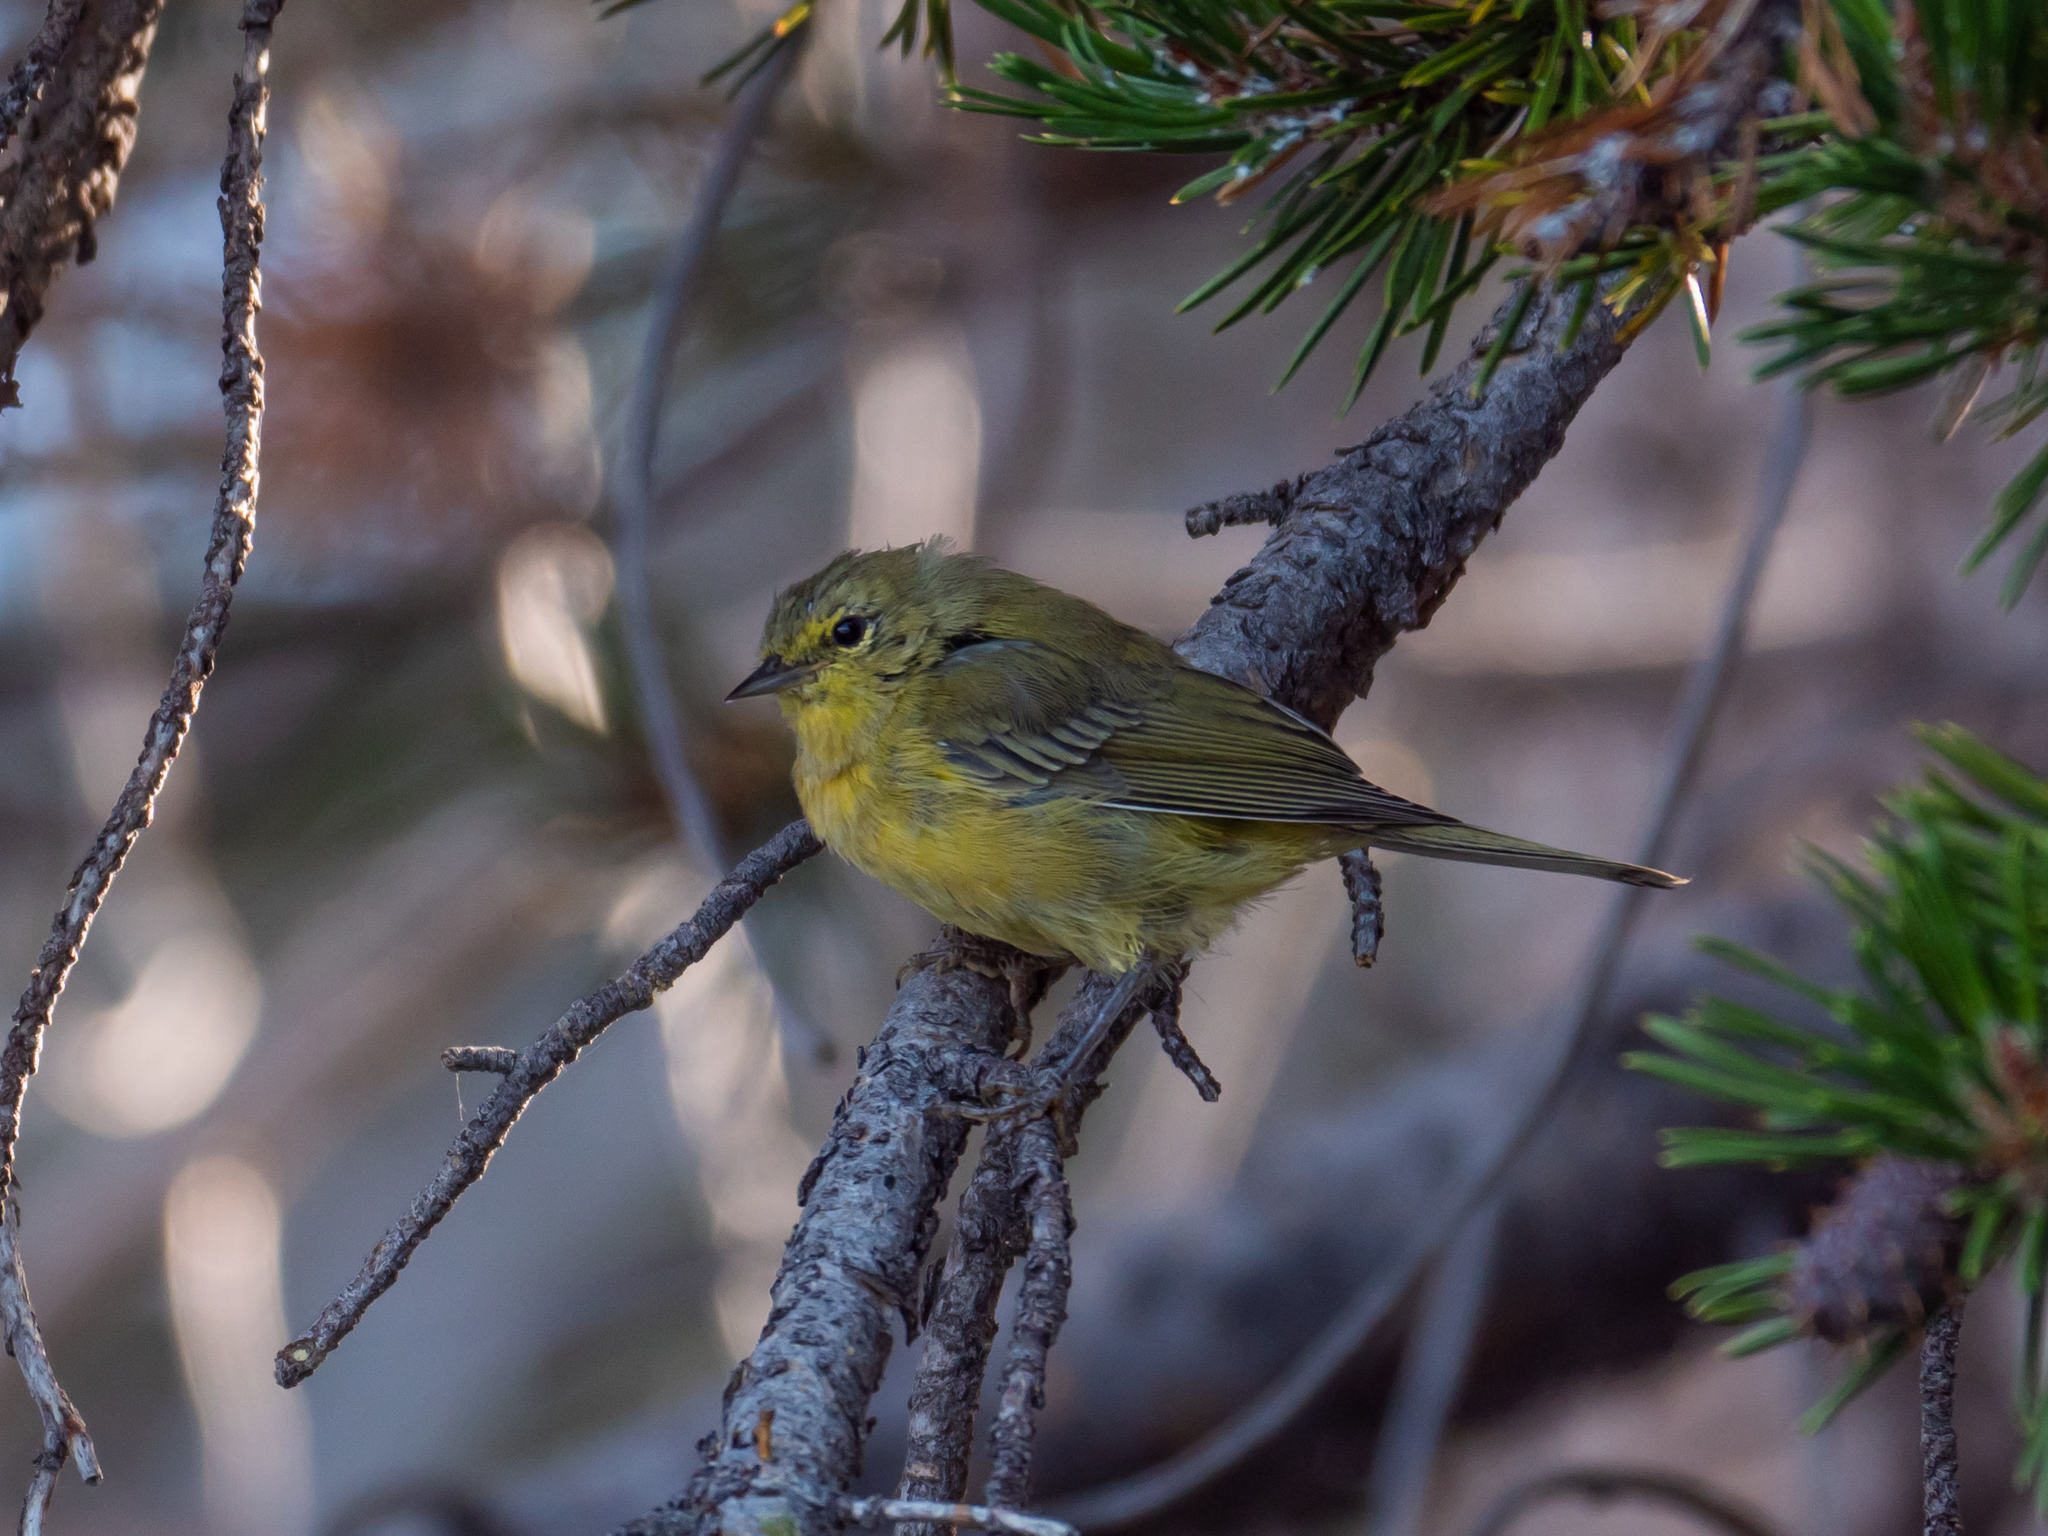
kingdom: Animalia
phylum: Chordata
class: Aves
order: Passeriformes
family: Parulidae
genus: Leiothlypis
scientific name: Leiothlypis celata
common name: Orange-crowned warbler
